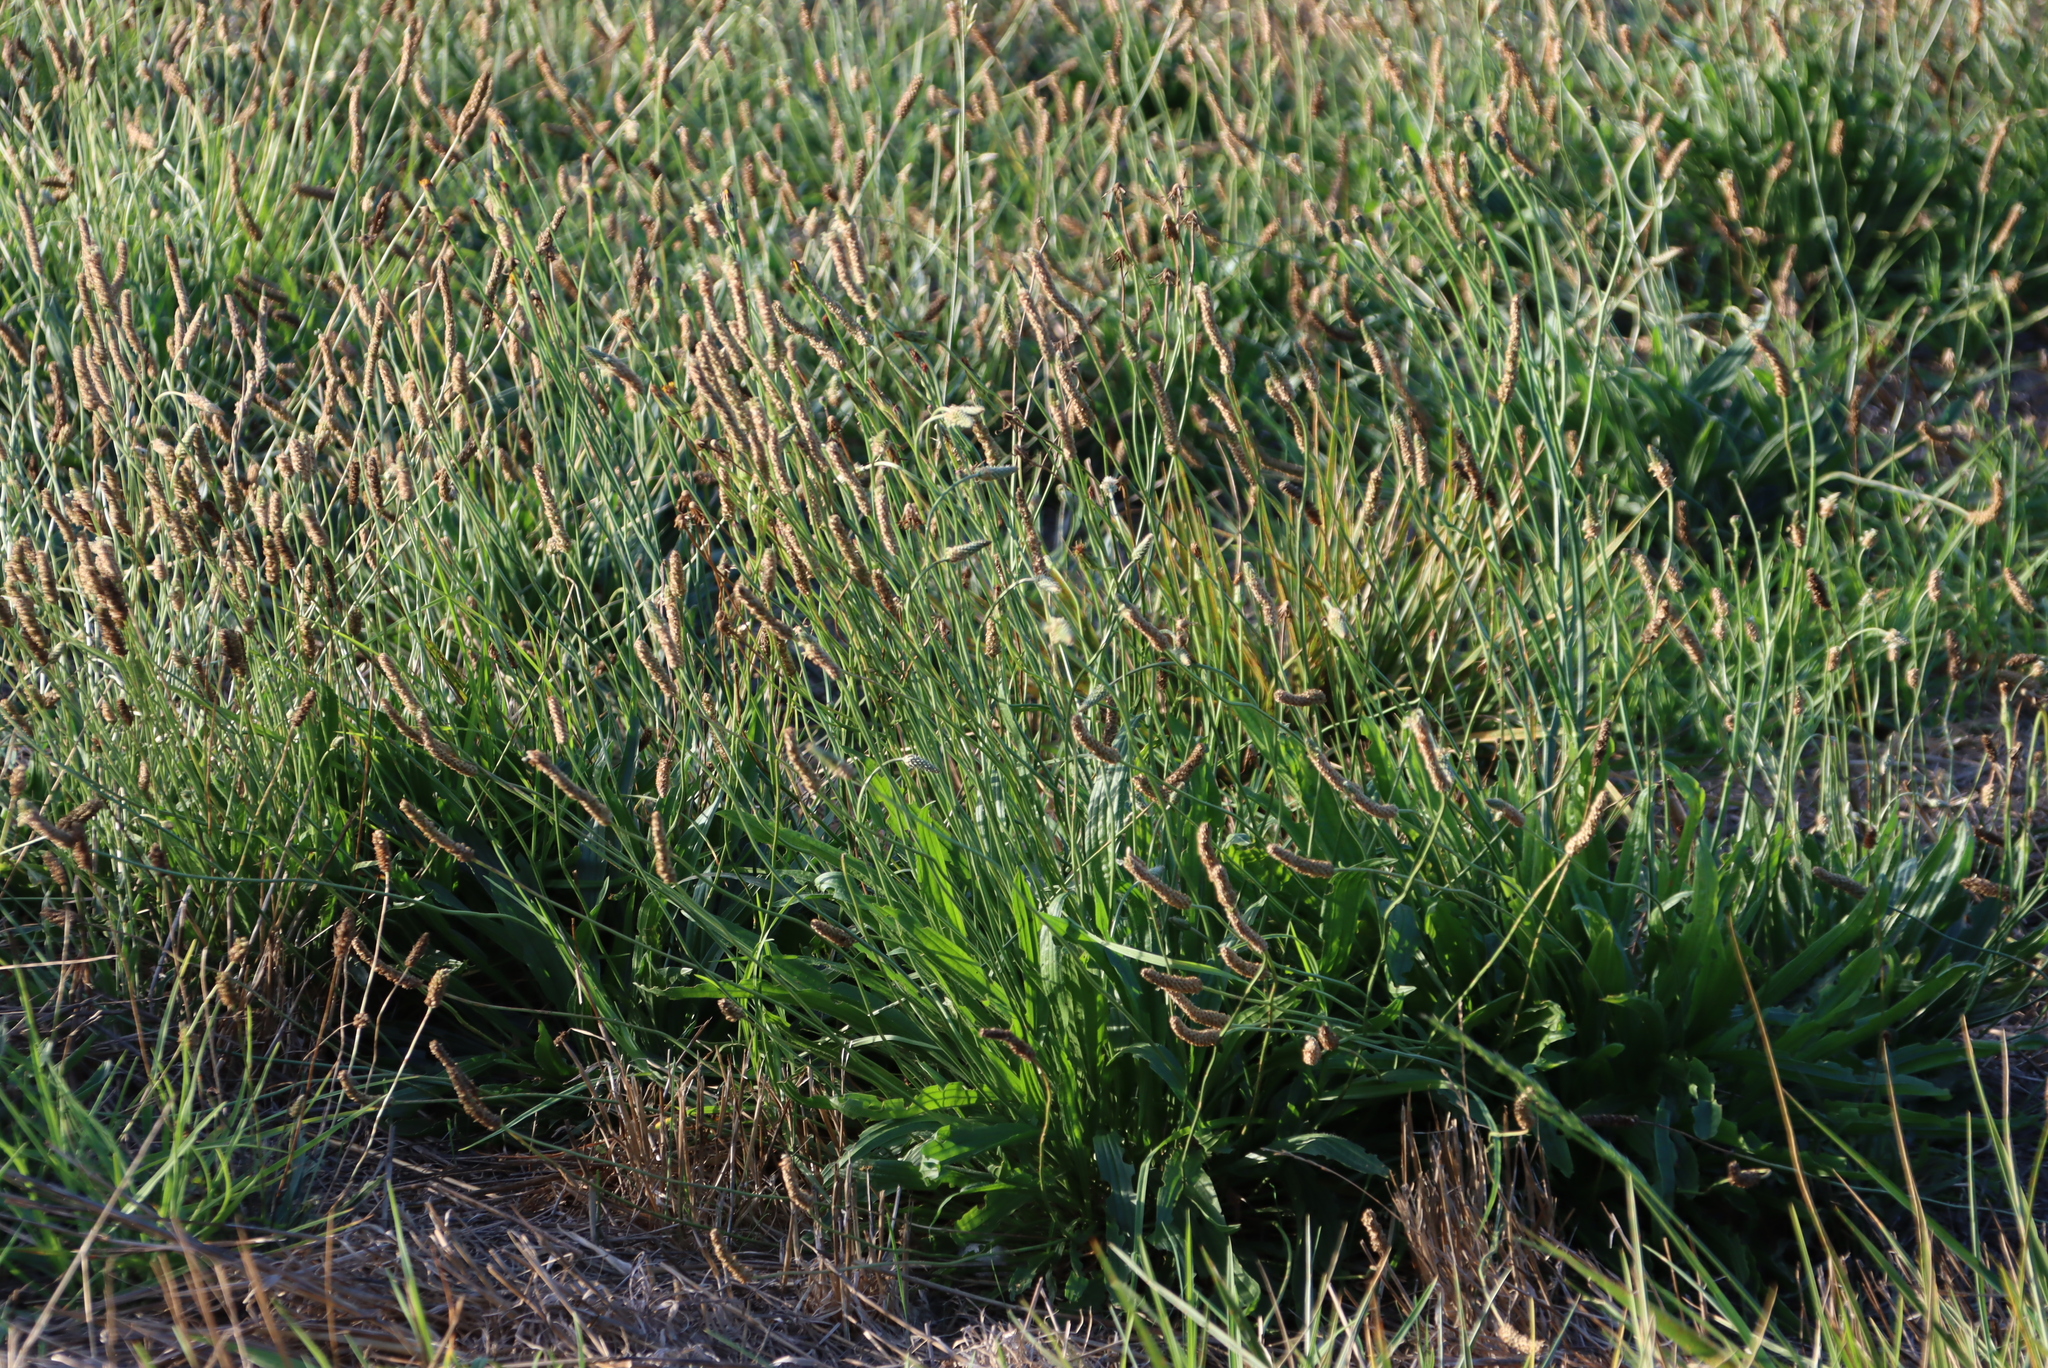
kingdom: Plantae
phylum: Tracheophyta
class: Magnoliopsida
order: Lamiales
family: Plantaginaceae
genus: Plantago
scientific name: Plantago lanceolata
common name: Ribwort plantain
